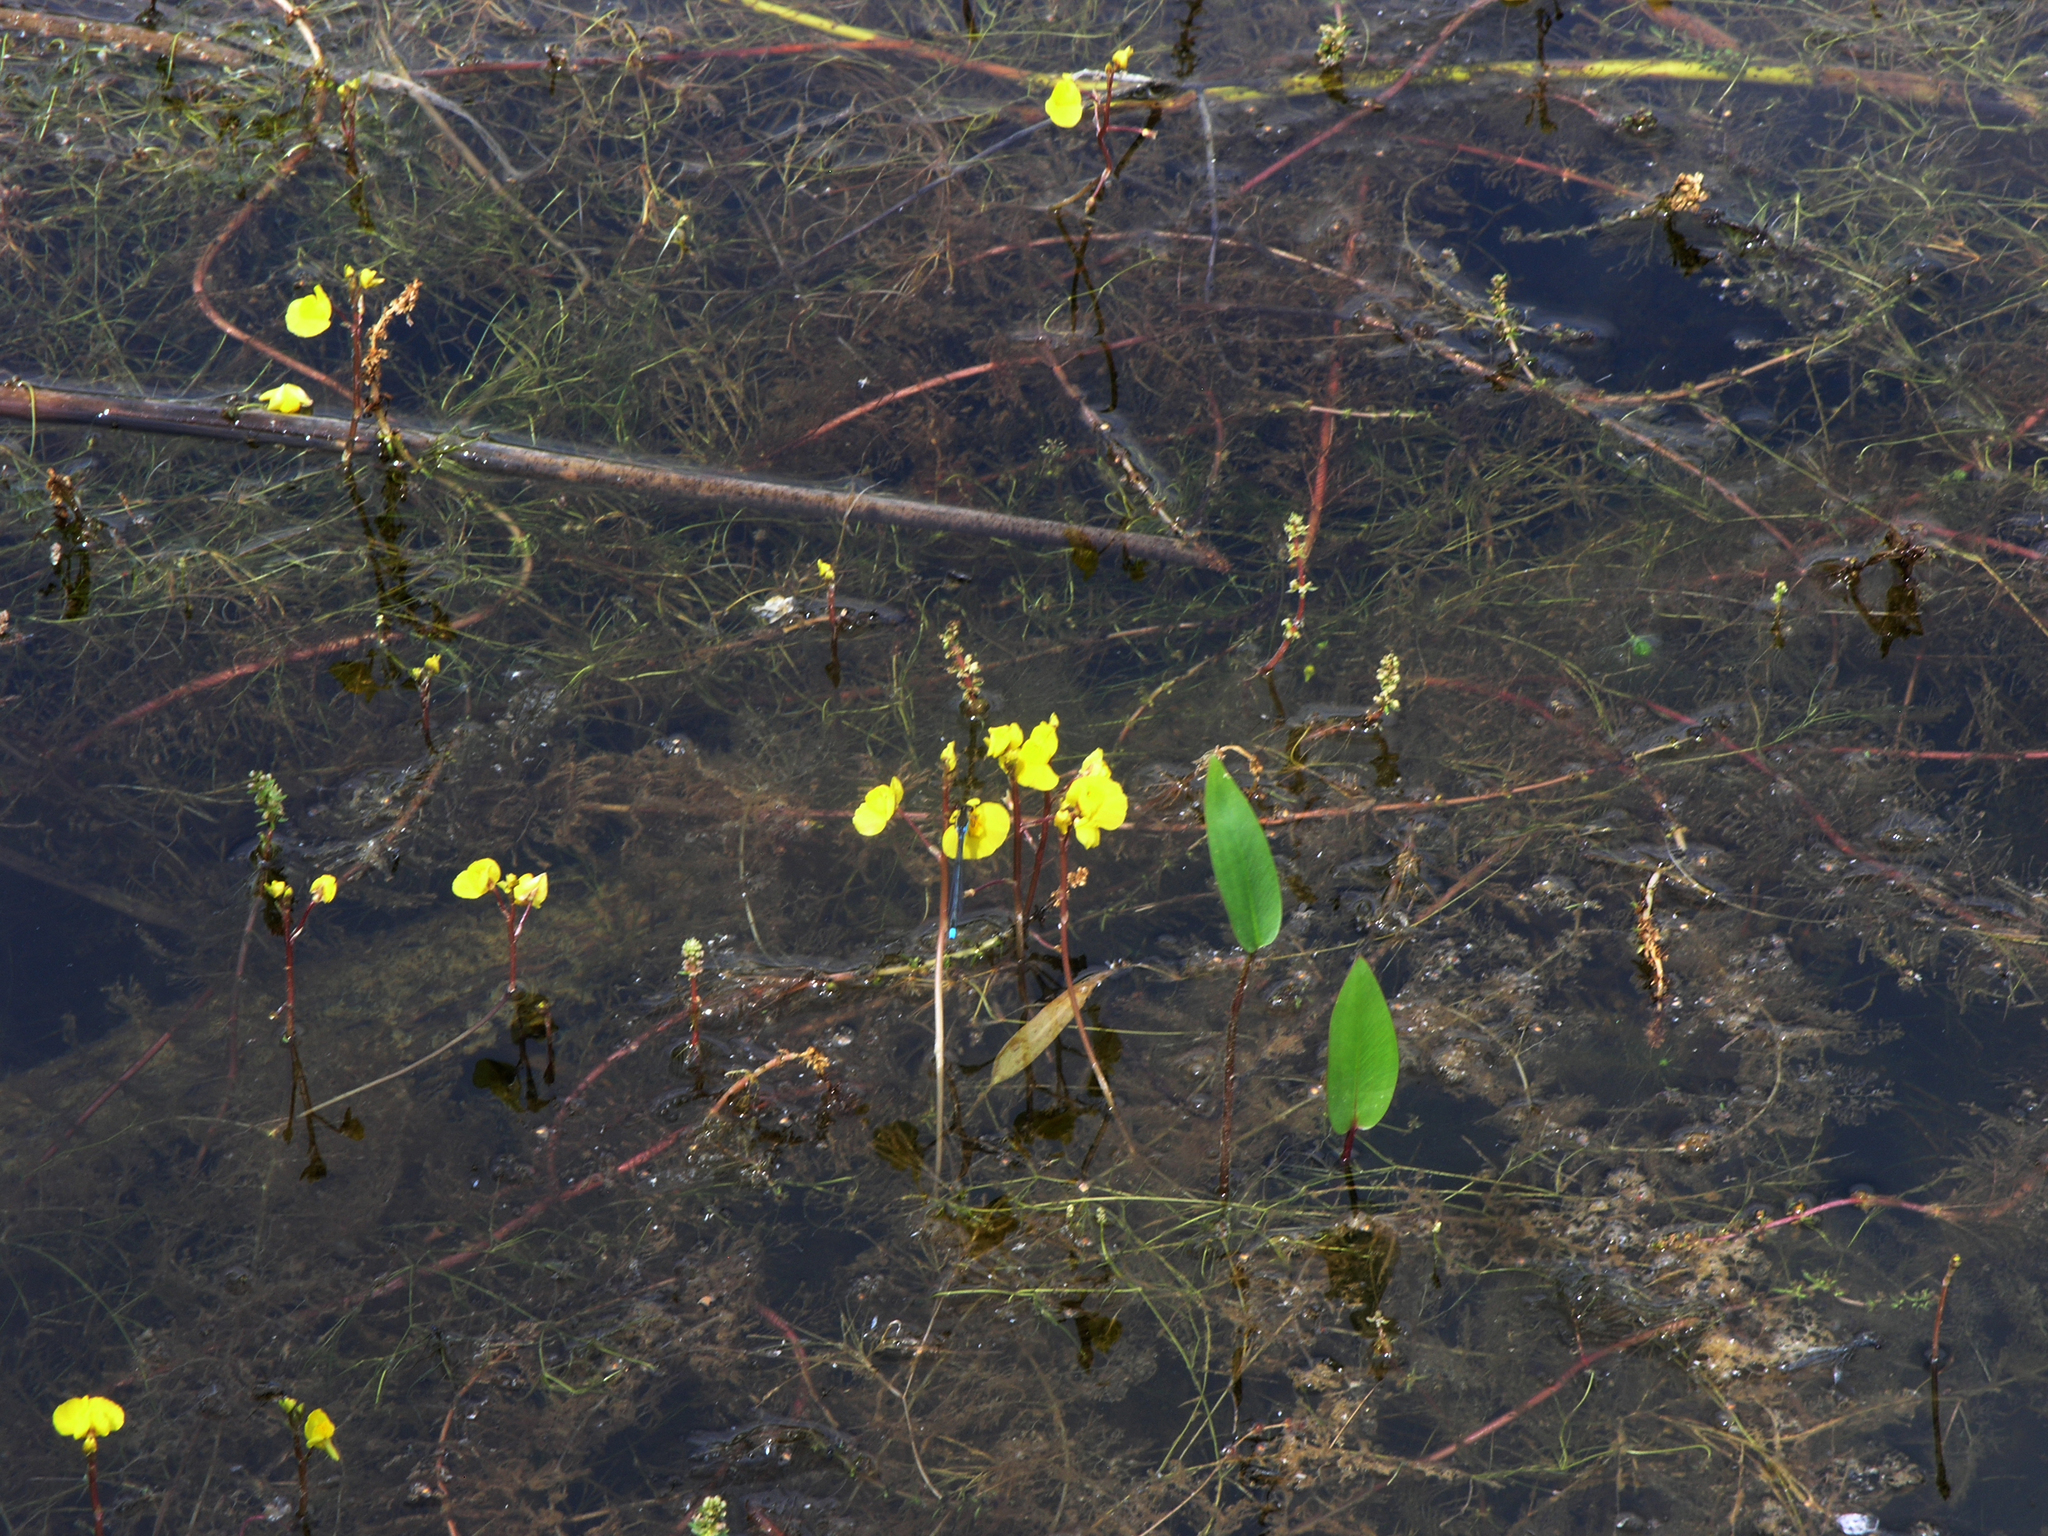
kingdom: Plantae
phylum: Tracheophyta
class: Magnoliopsida
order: Lamiales
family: Lentibulariaceae
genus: Utricularia
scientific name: Utricularia australis
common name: Bladderwort
